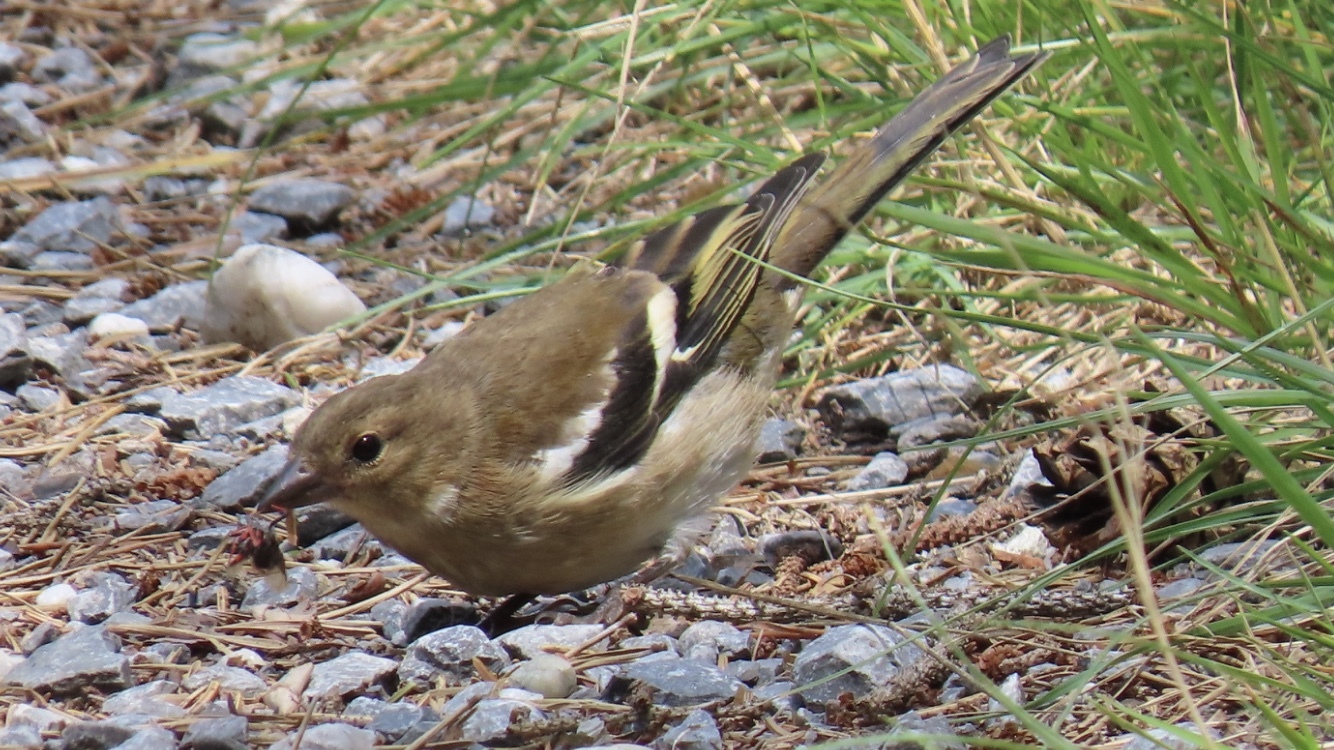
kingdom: Animalia
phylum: Chordata
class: Aves
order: Passeriformes
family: Fringillidae
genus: Fringilla
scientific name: Fringilla coelebs
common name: Common chaffinch
